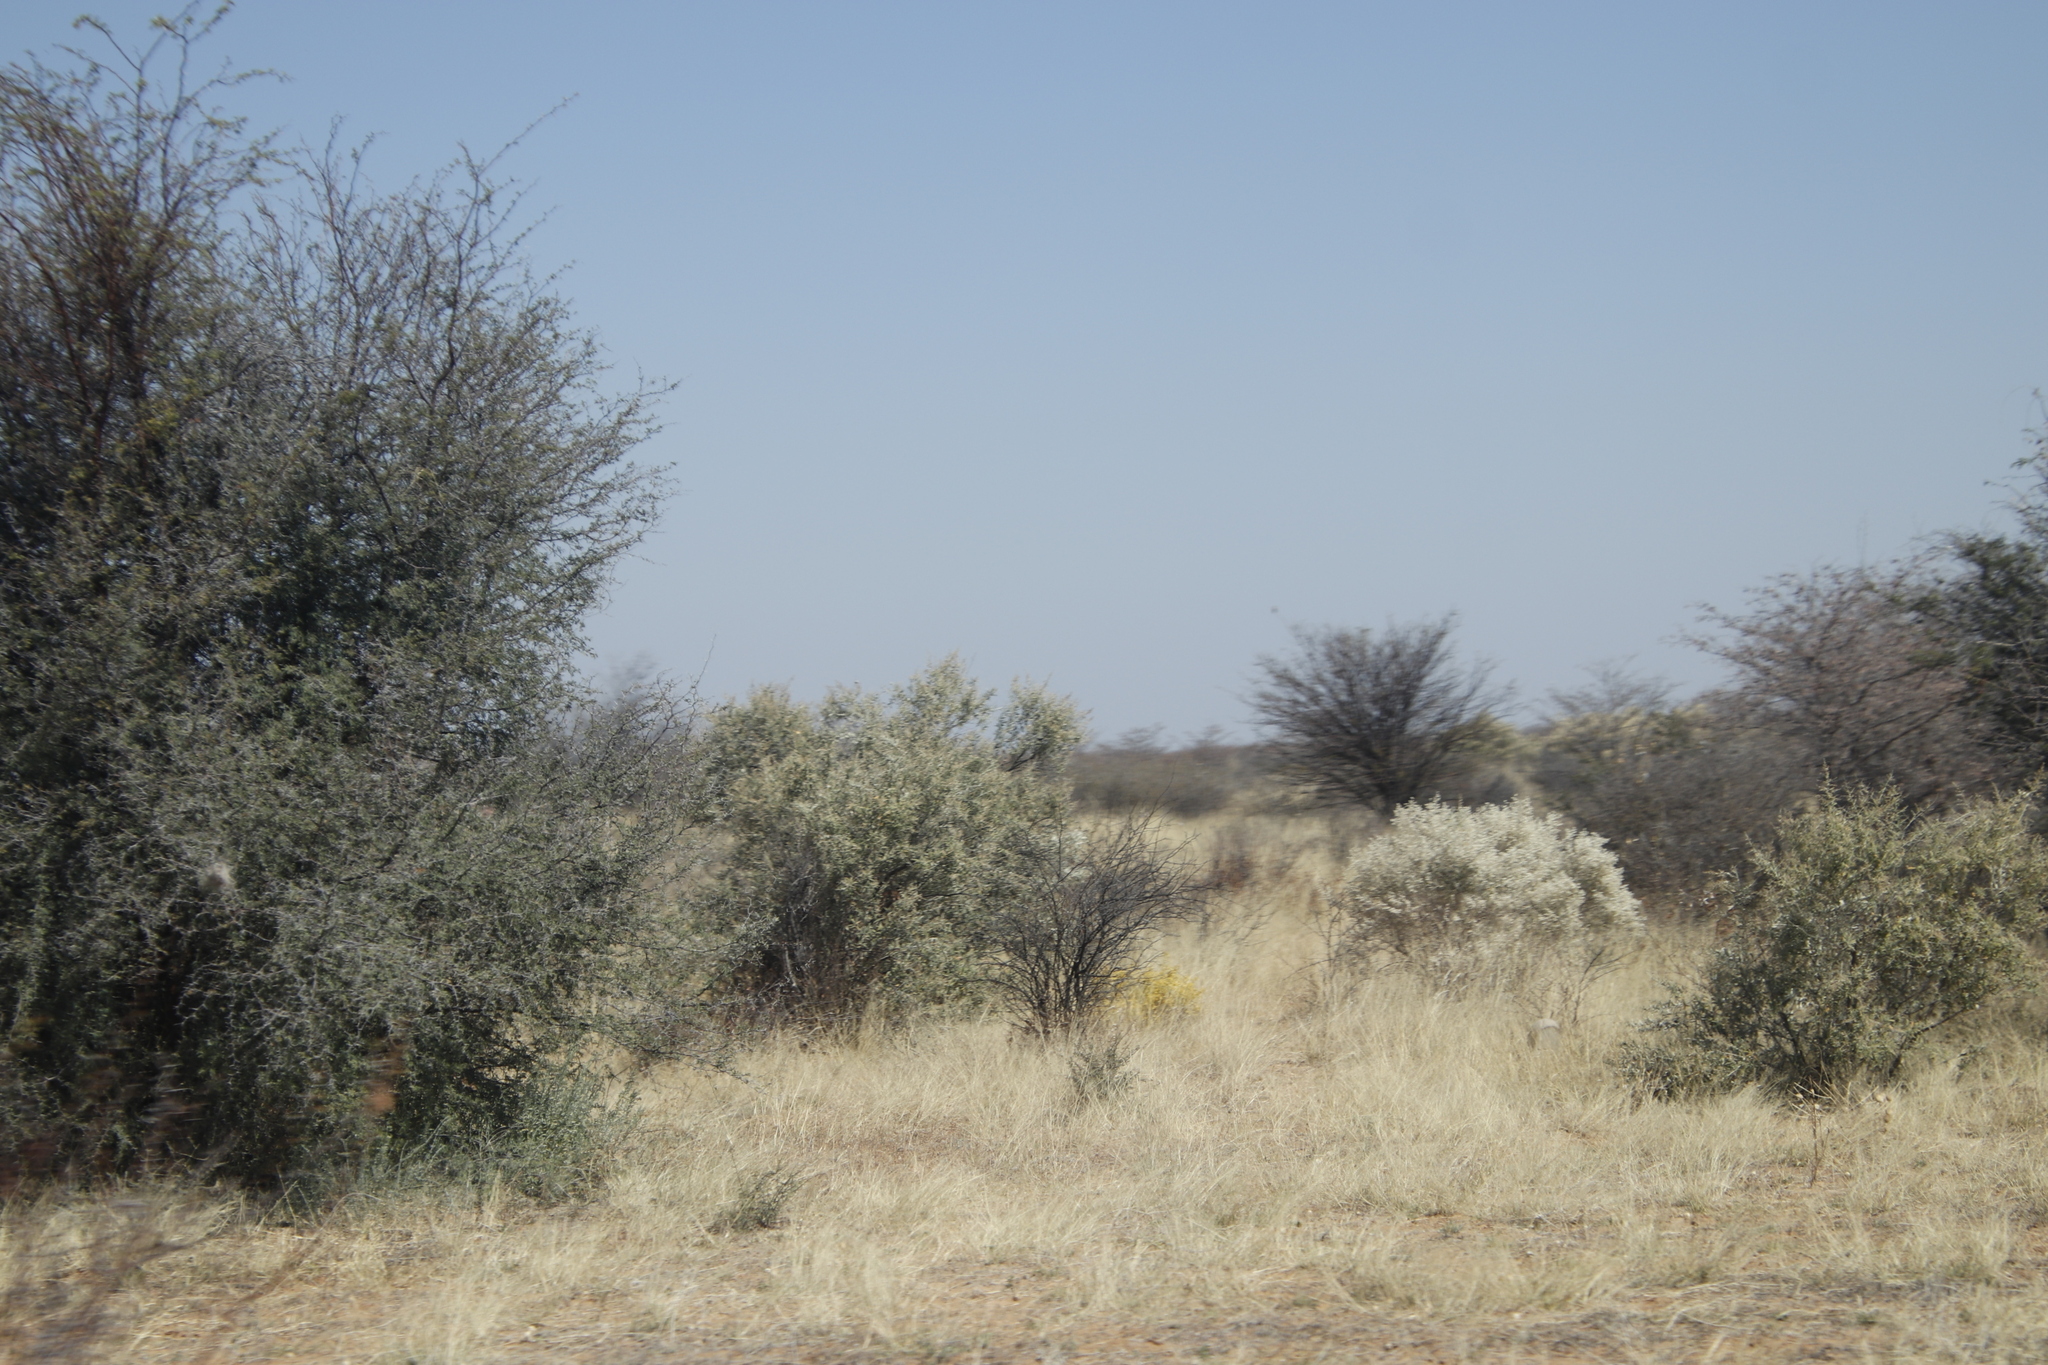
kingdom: Plantae
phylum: Tracheophyta
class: Magnoliopsida
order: Malvales
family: Thymelaeaceae
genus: Gnidia
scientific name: Gnidia polycephala
